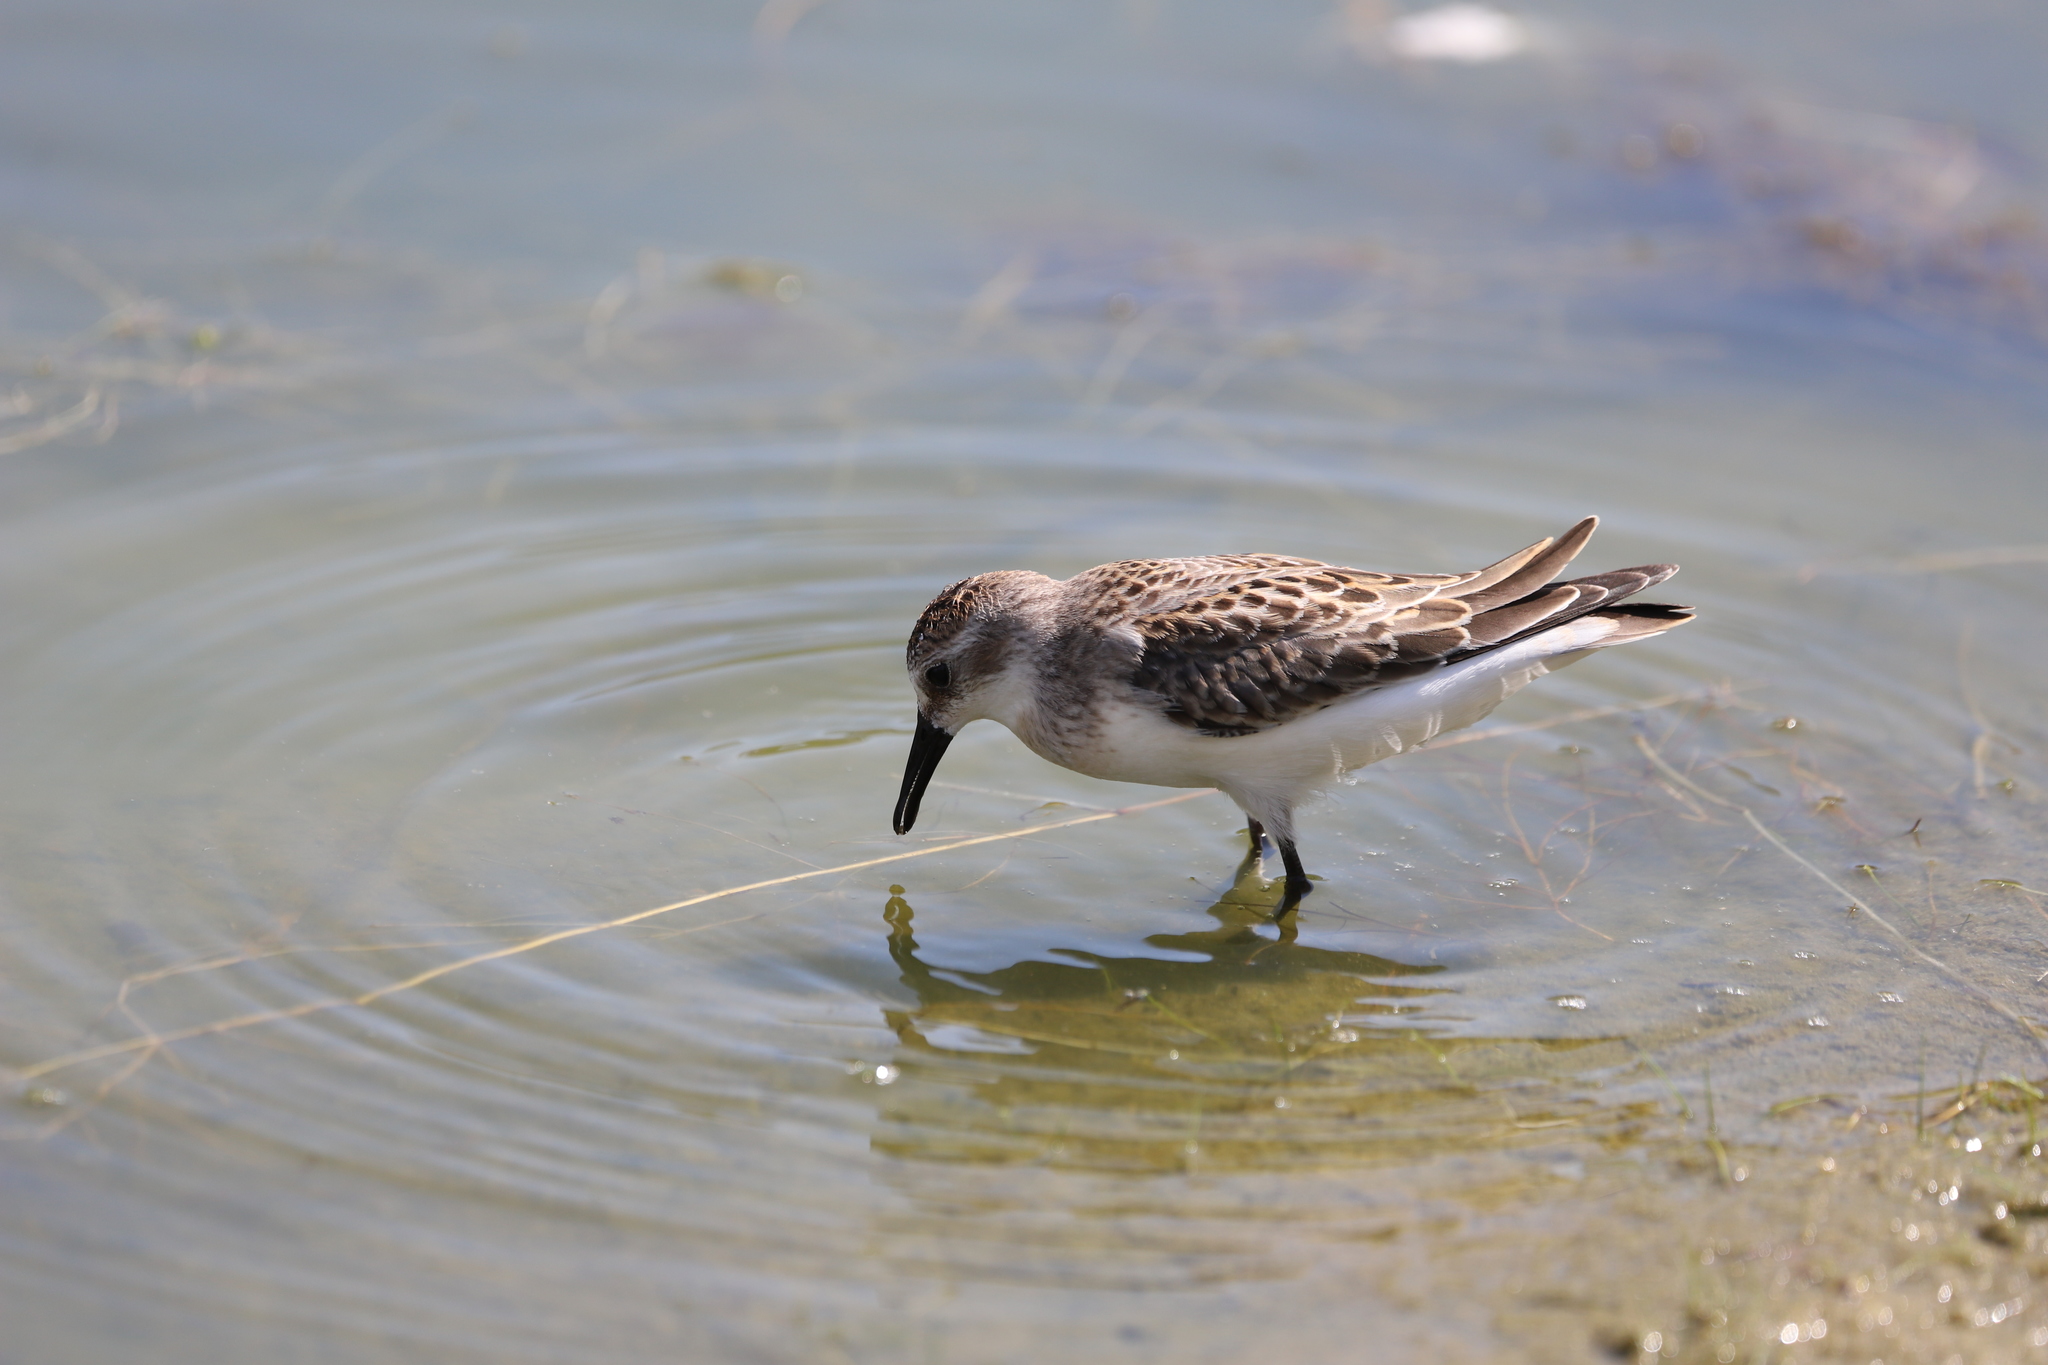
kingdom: Animalia
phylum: Chordata
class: Aves
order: Charadriiformes
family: Scolopacidae
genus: Calidris
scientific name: Calidris pusilla
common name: Semipalmated sandpiper
